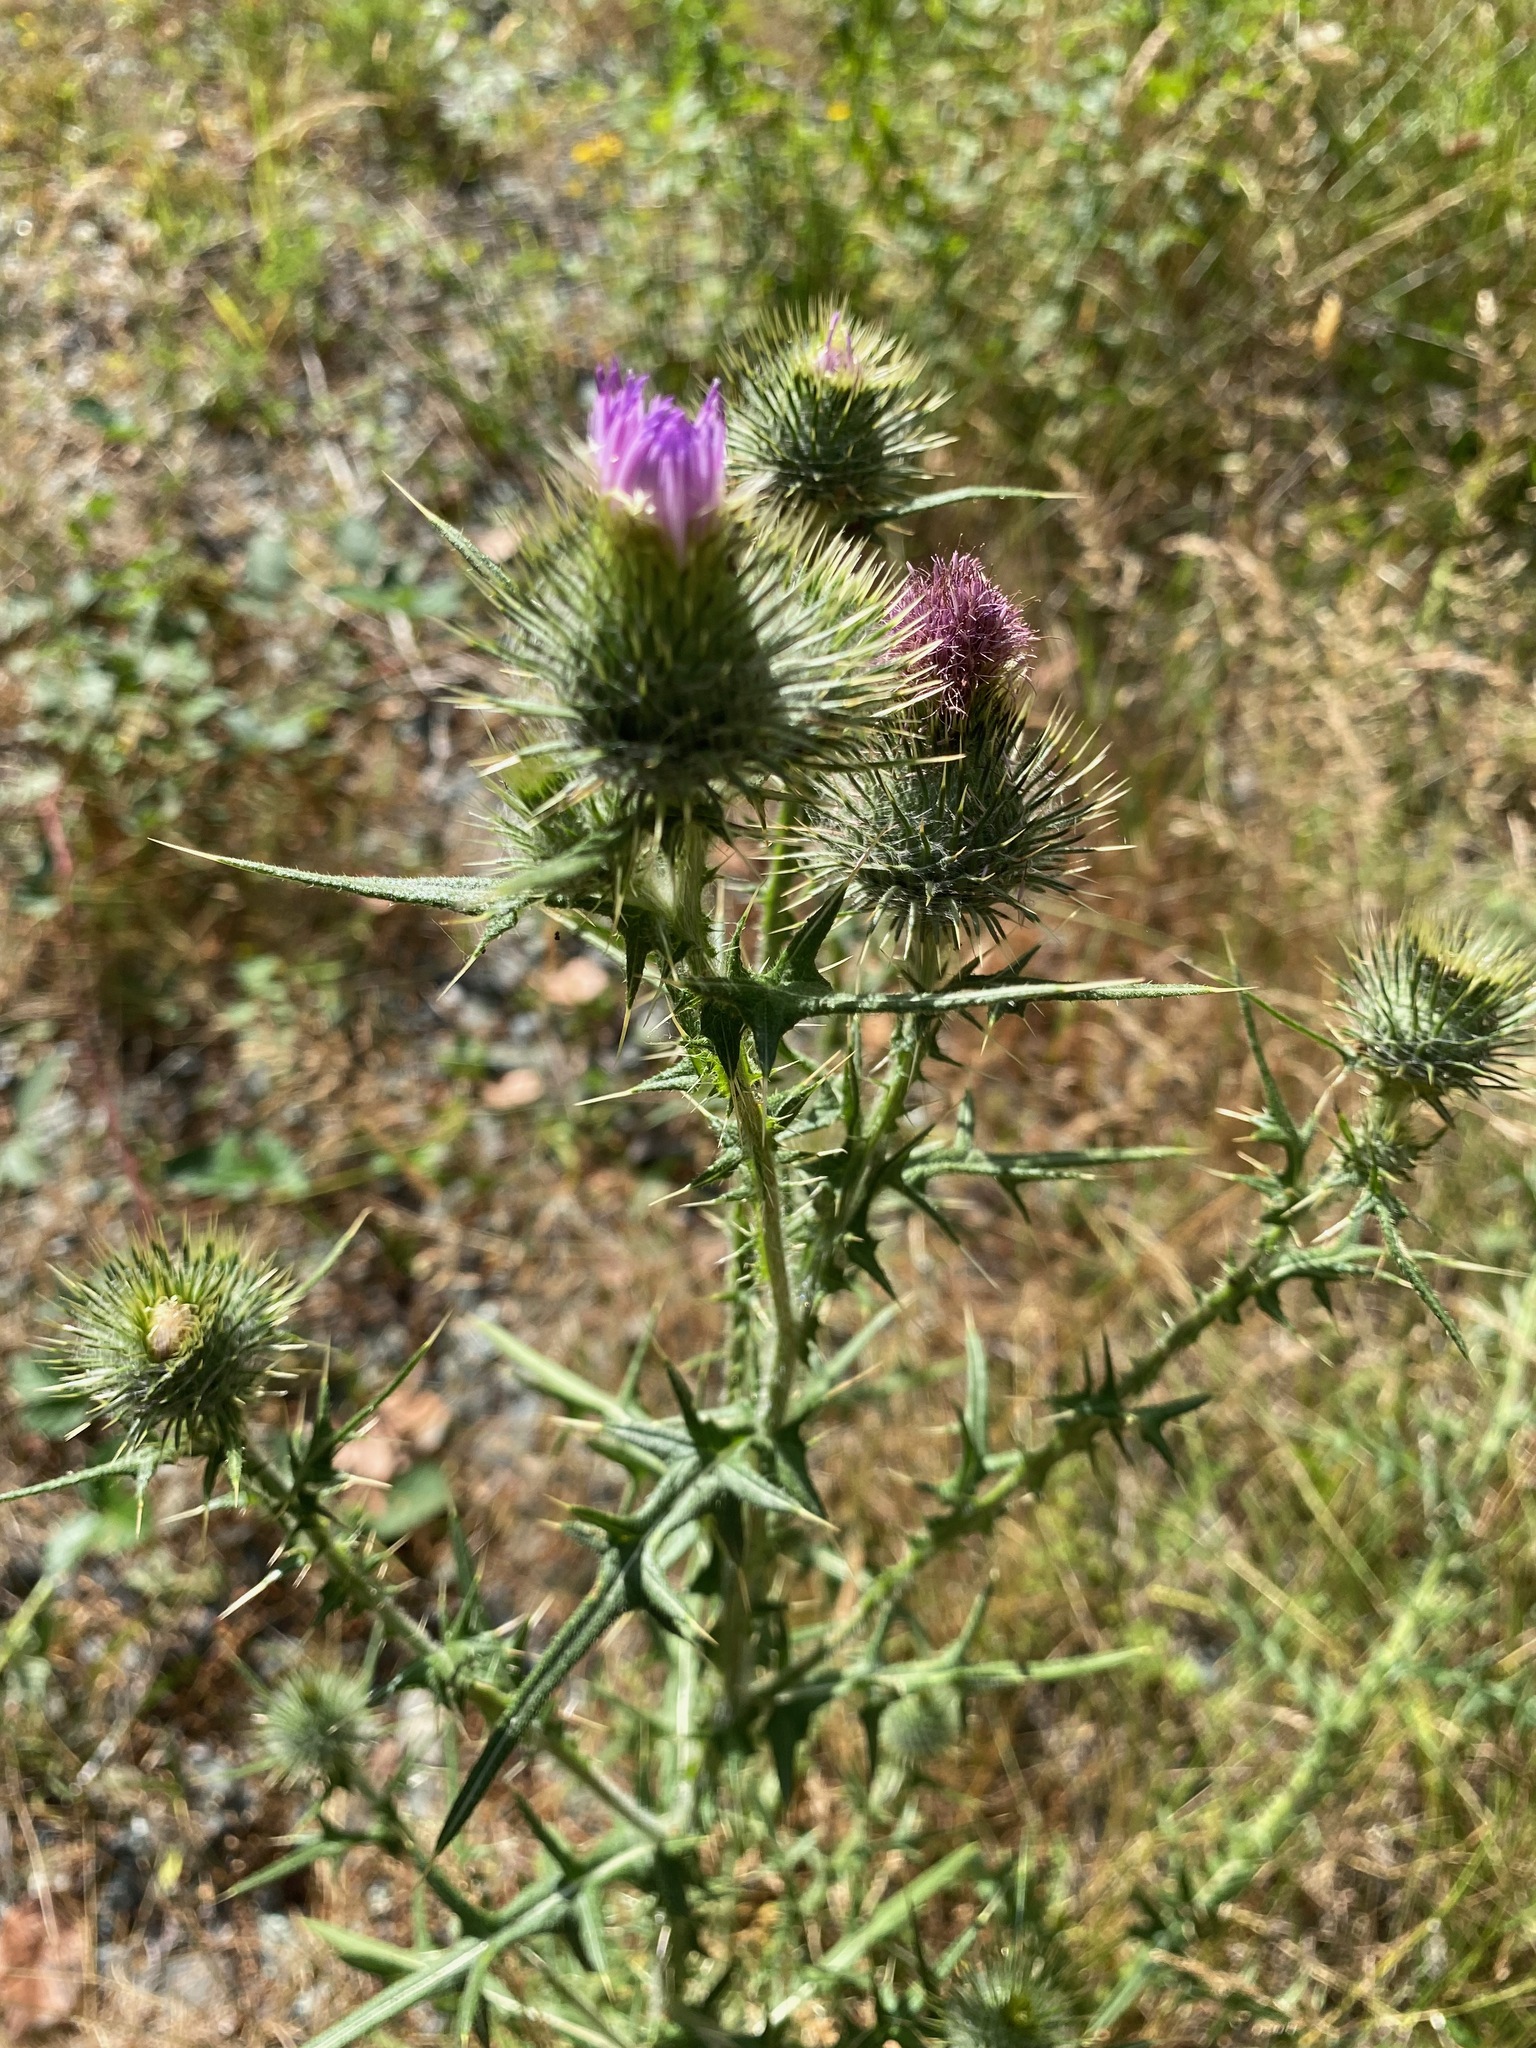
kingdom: Plantae
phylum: Tracheophyta
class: Magnoliopsida
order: Asterales
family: Asteraceae
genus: Cirsium
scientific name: Cirsium vulgare
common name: Bull thistle
